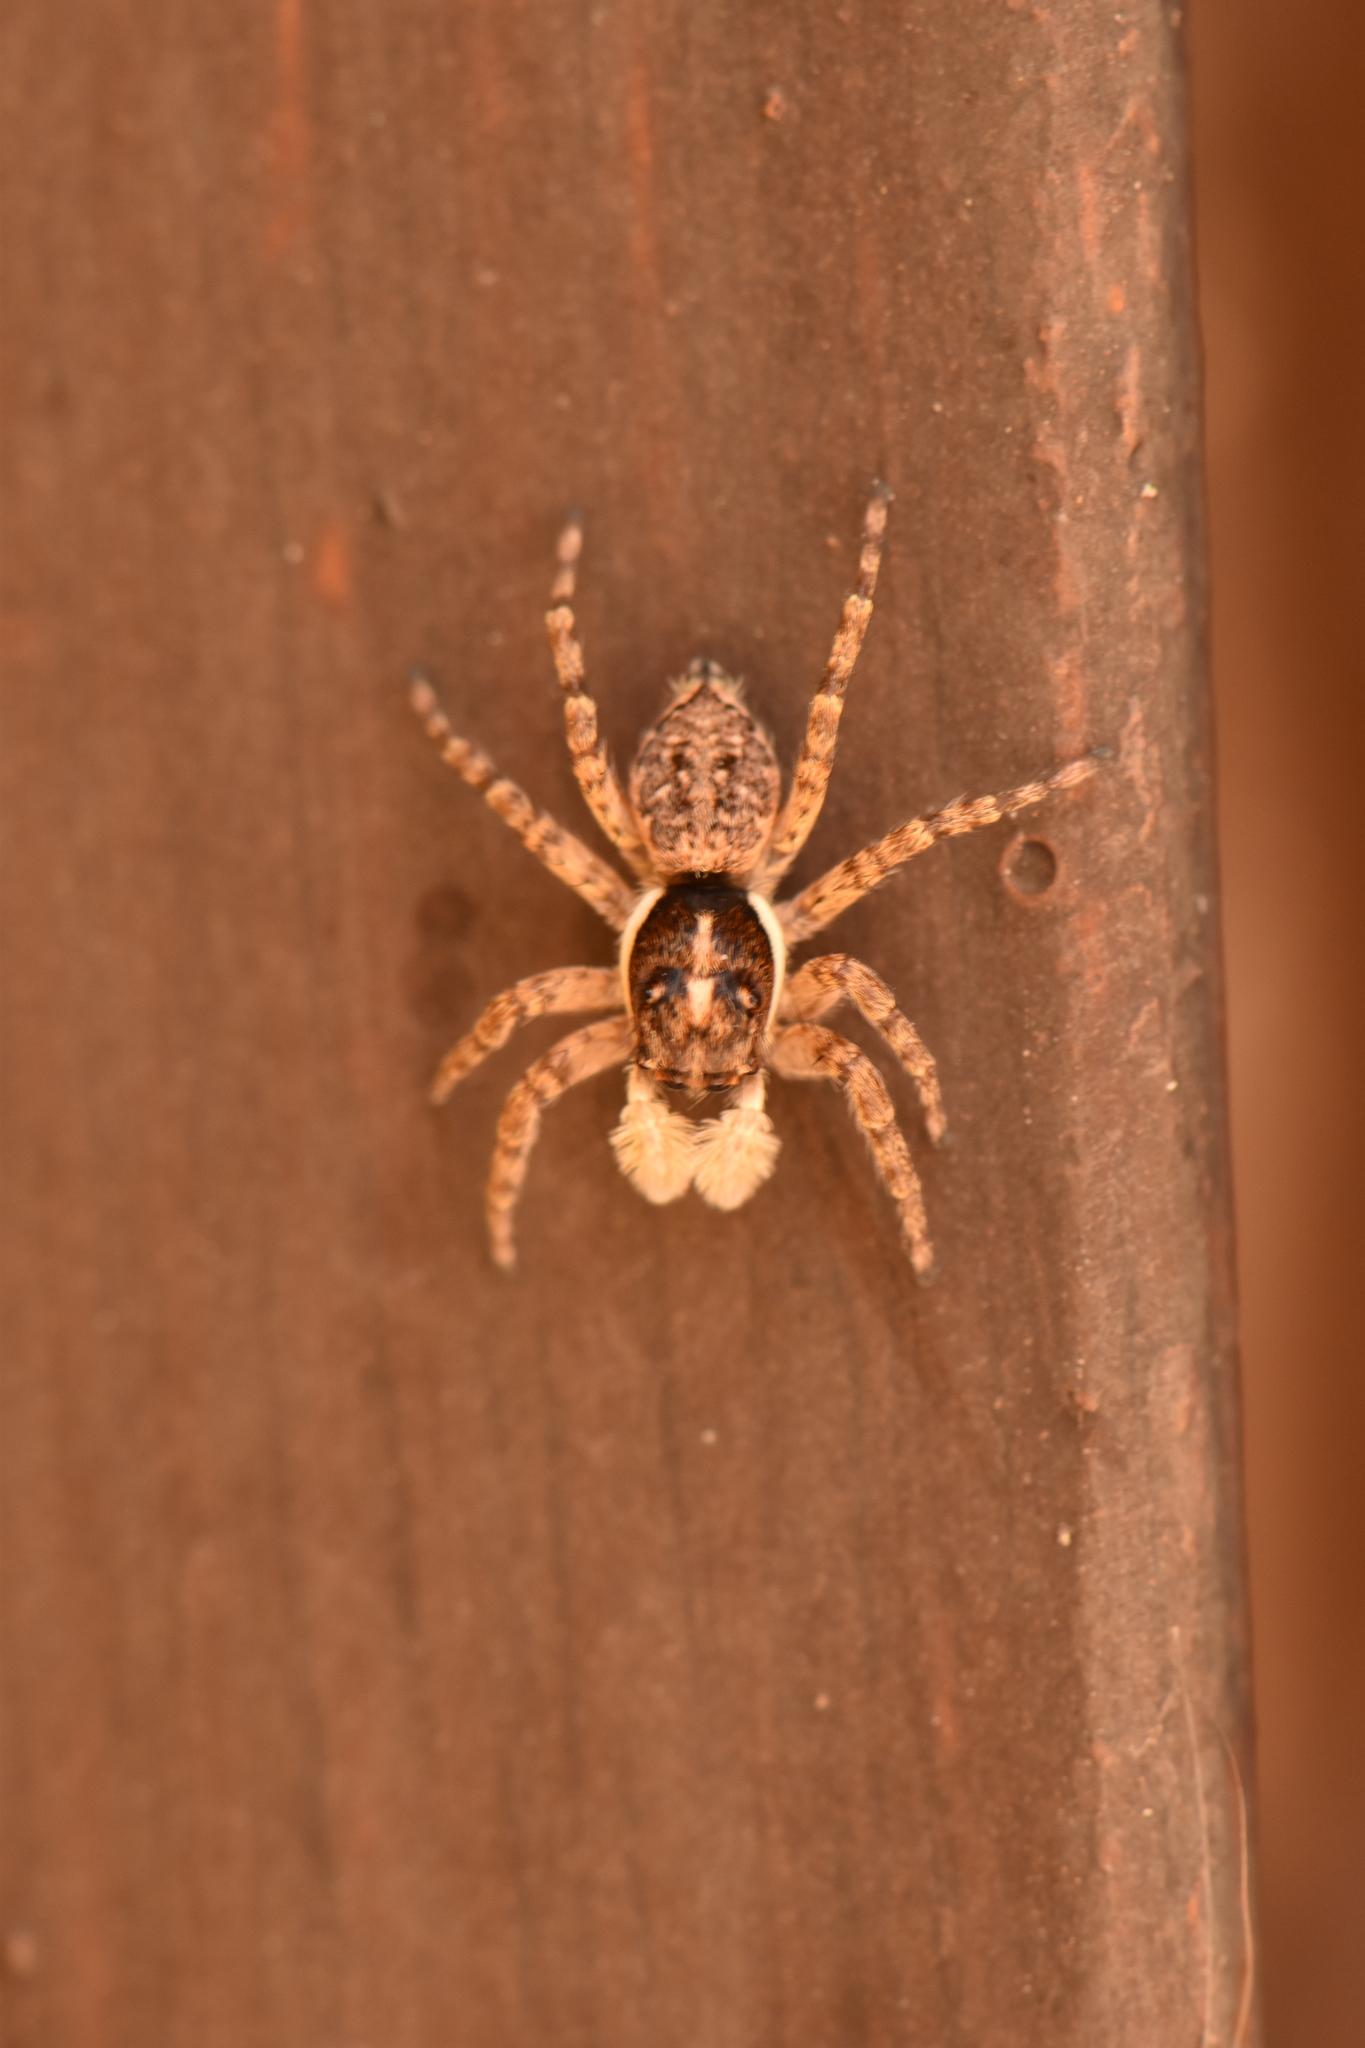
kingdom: Animalia
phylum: Arthropoda
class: Arachnida
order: Araneae
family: Salticidae
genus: Menemerus
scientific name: Menemerus semilimbatus
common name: Jumping spider
